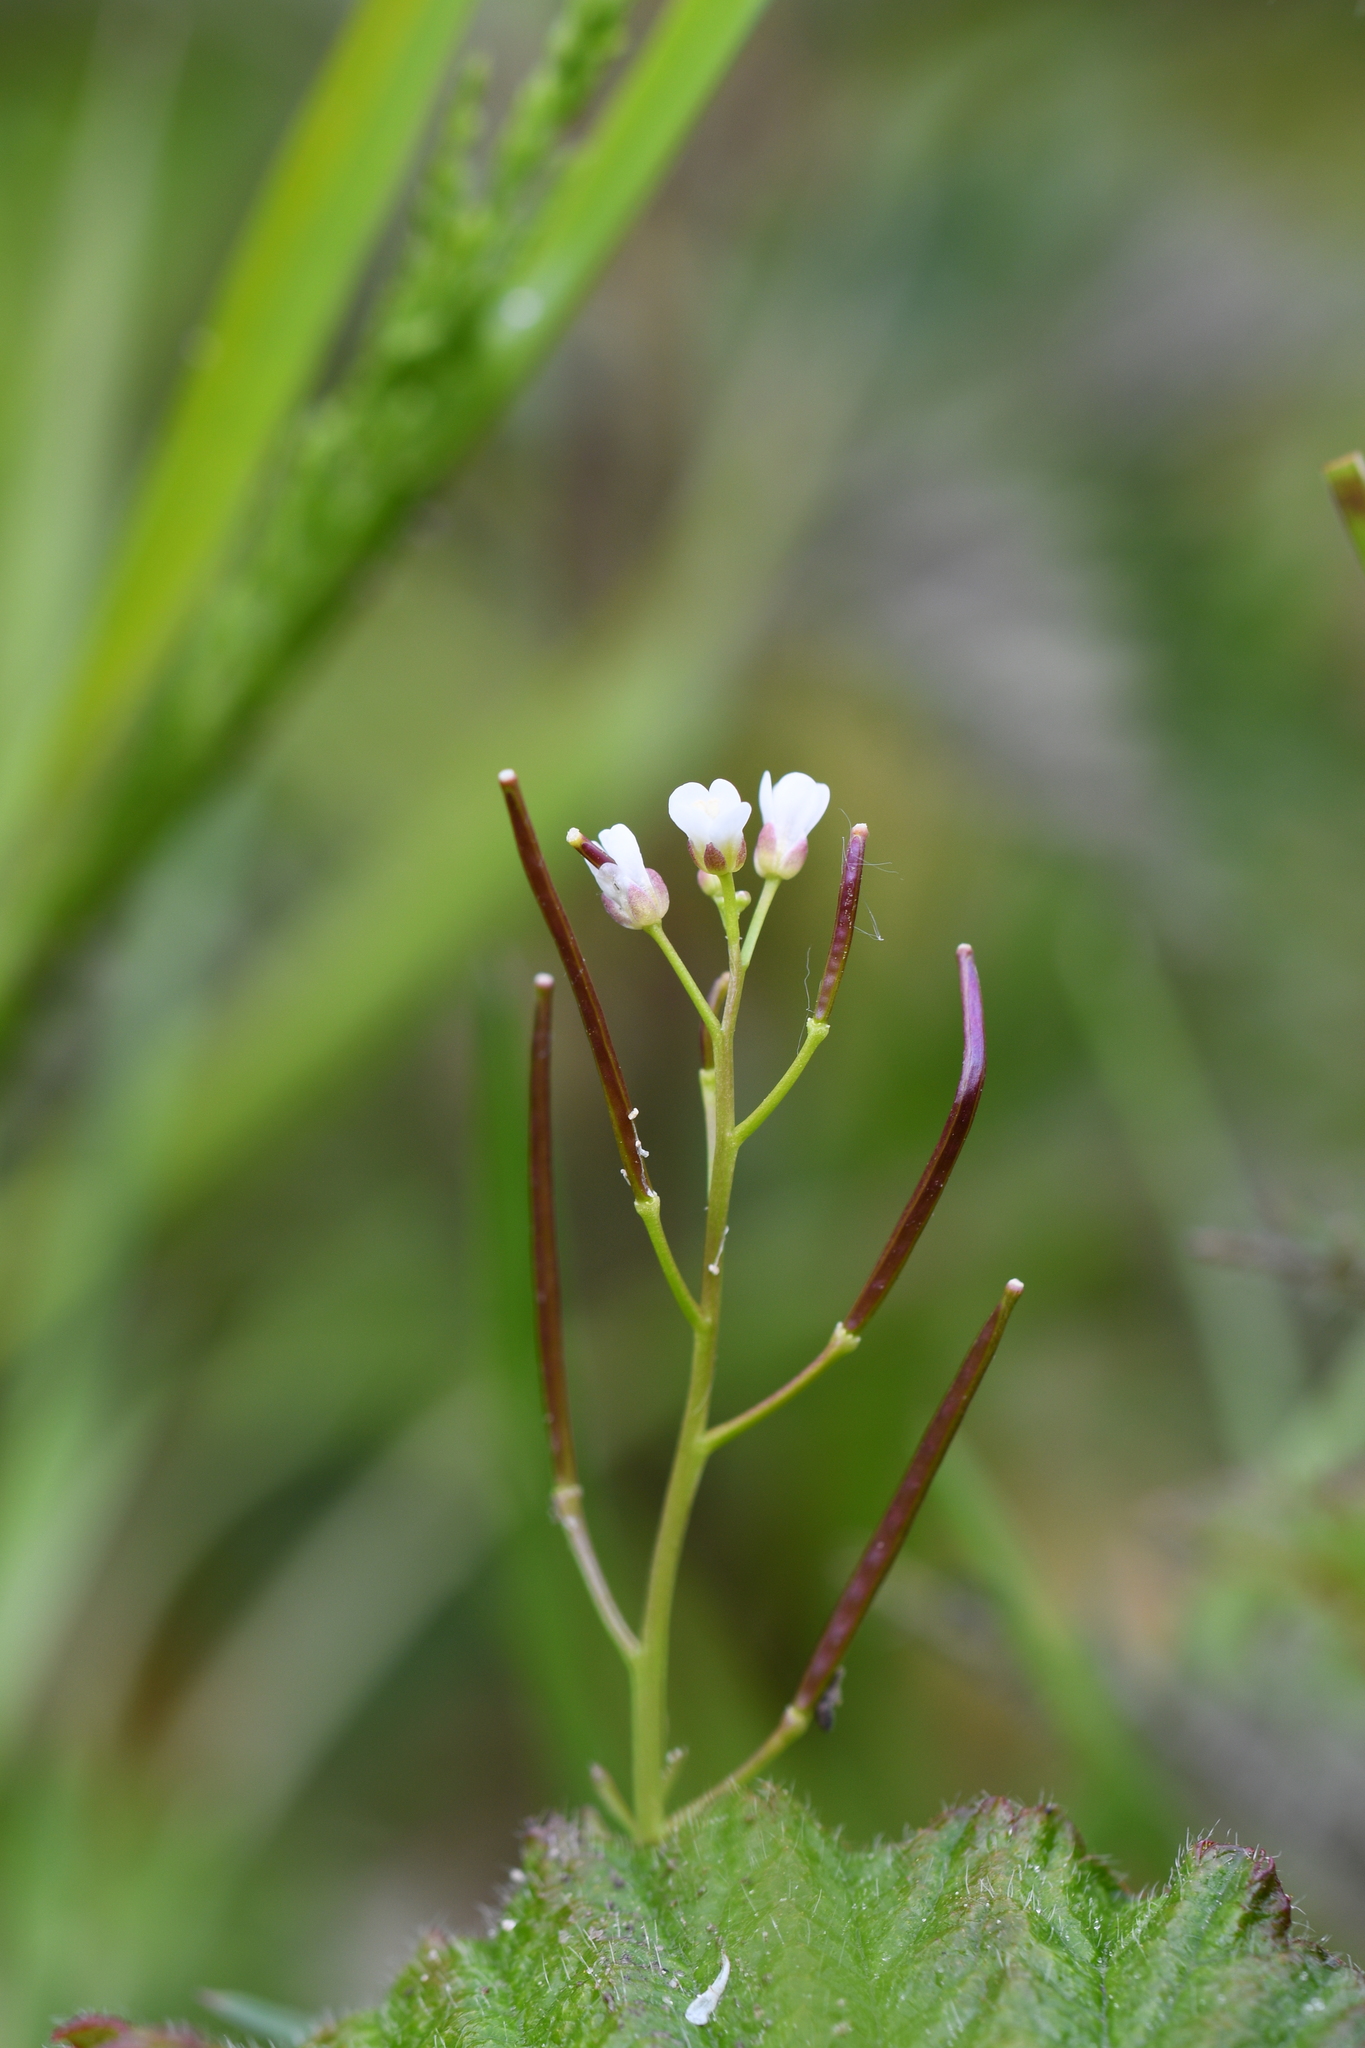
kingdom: Plantae
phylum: Tracheophyta
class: Magnoliopsida
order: Brassicales
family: Brassicaceae
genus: Cardamine
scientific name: Cardamine hirsuta
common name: Hairy bittercress
